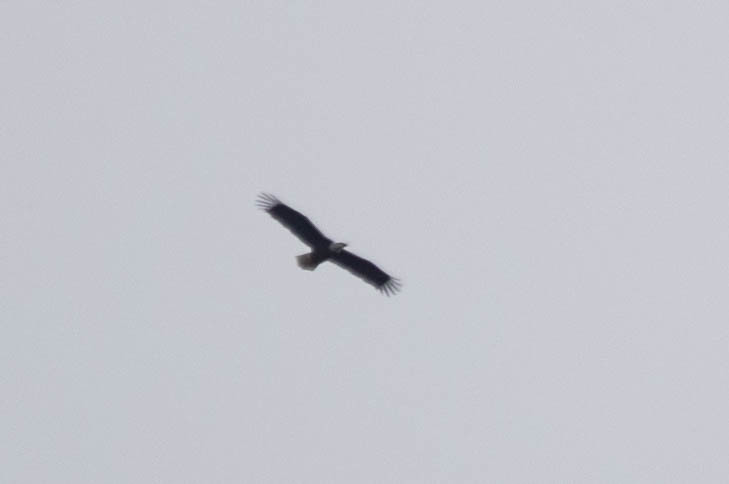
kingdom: Animalia
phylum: Chordata
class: Aves
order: Accipitriformes
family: Accipitridae
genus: Haliaeetus
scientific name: Haliaeetus leucocephalus
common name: Bald eagle
